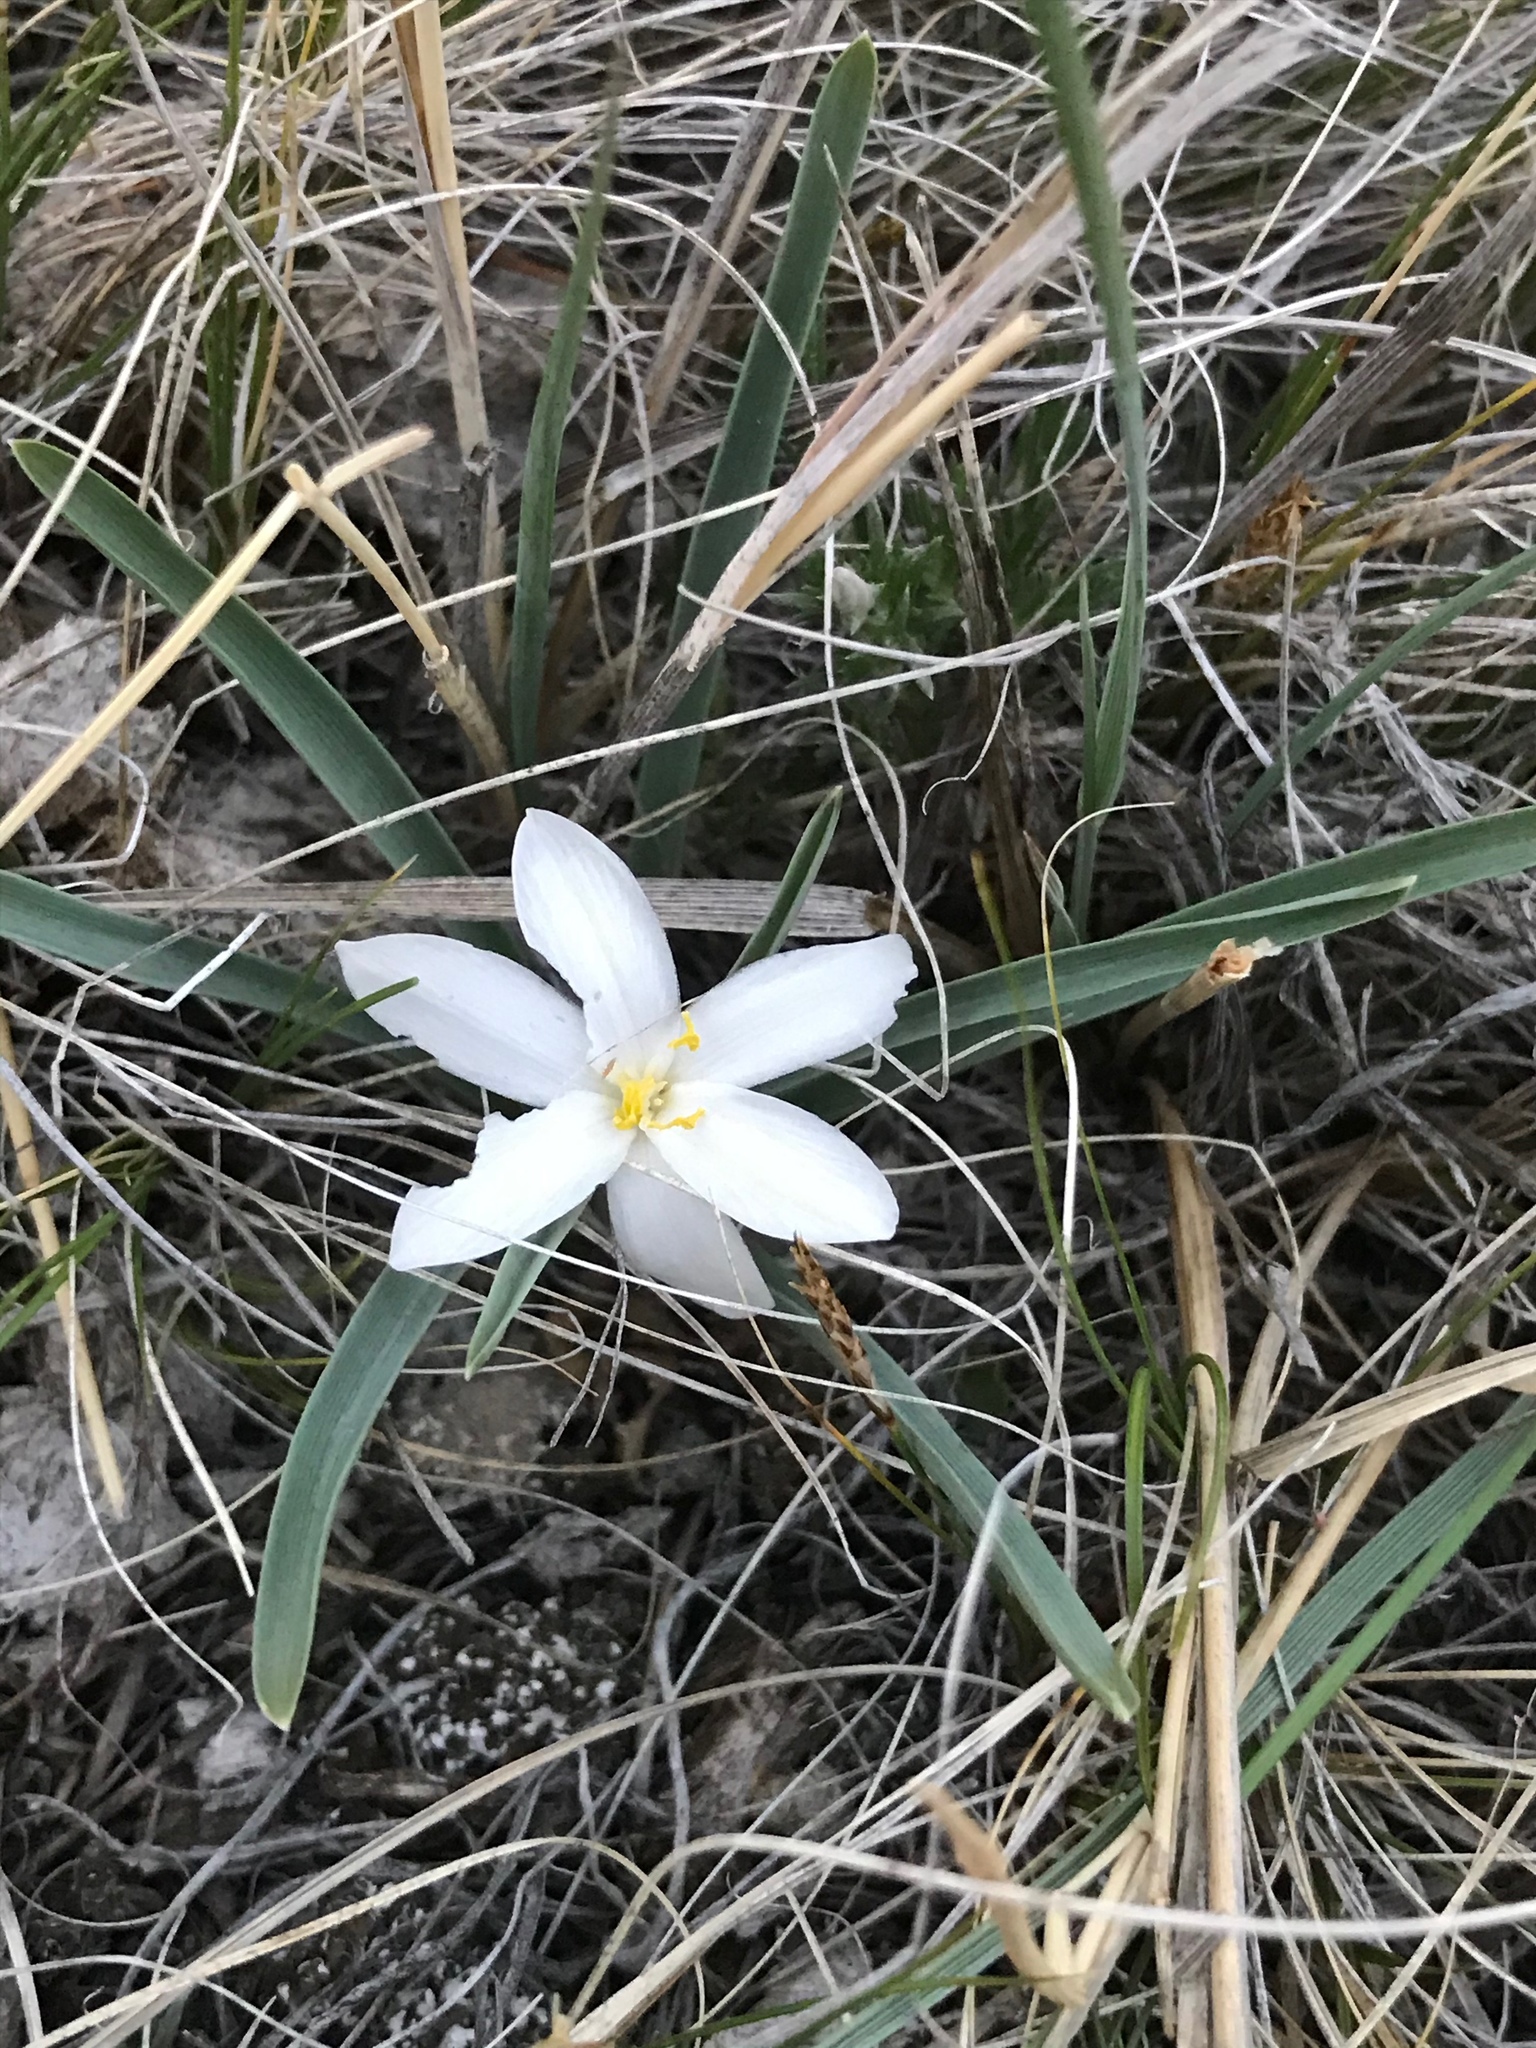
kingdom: Plantae
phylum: Tracheophyta
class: Liliopsida
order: Asparagales
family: Asparagaceae
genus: Leucocrinum
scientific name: Leucocrinum montanum
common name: Mountain-lily
